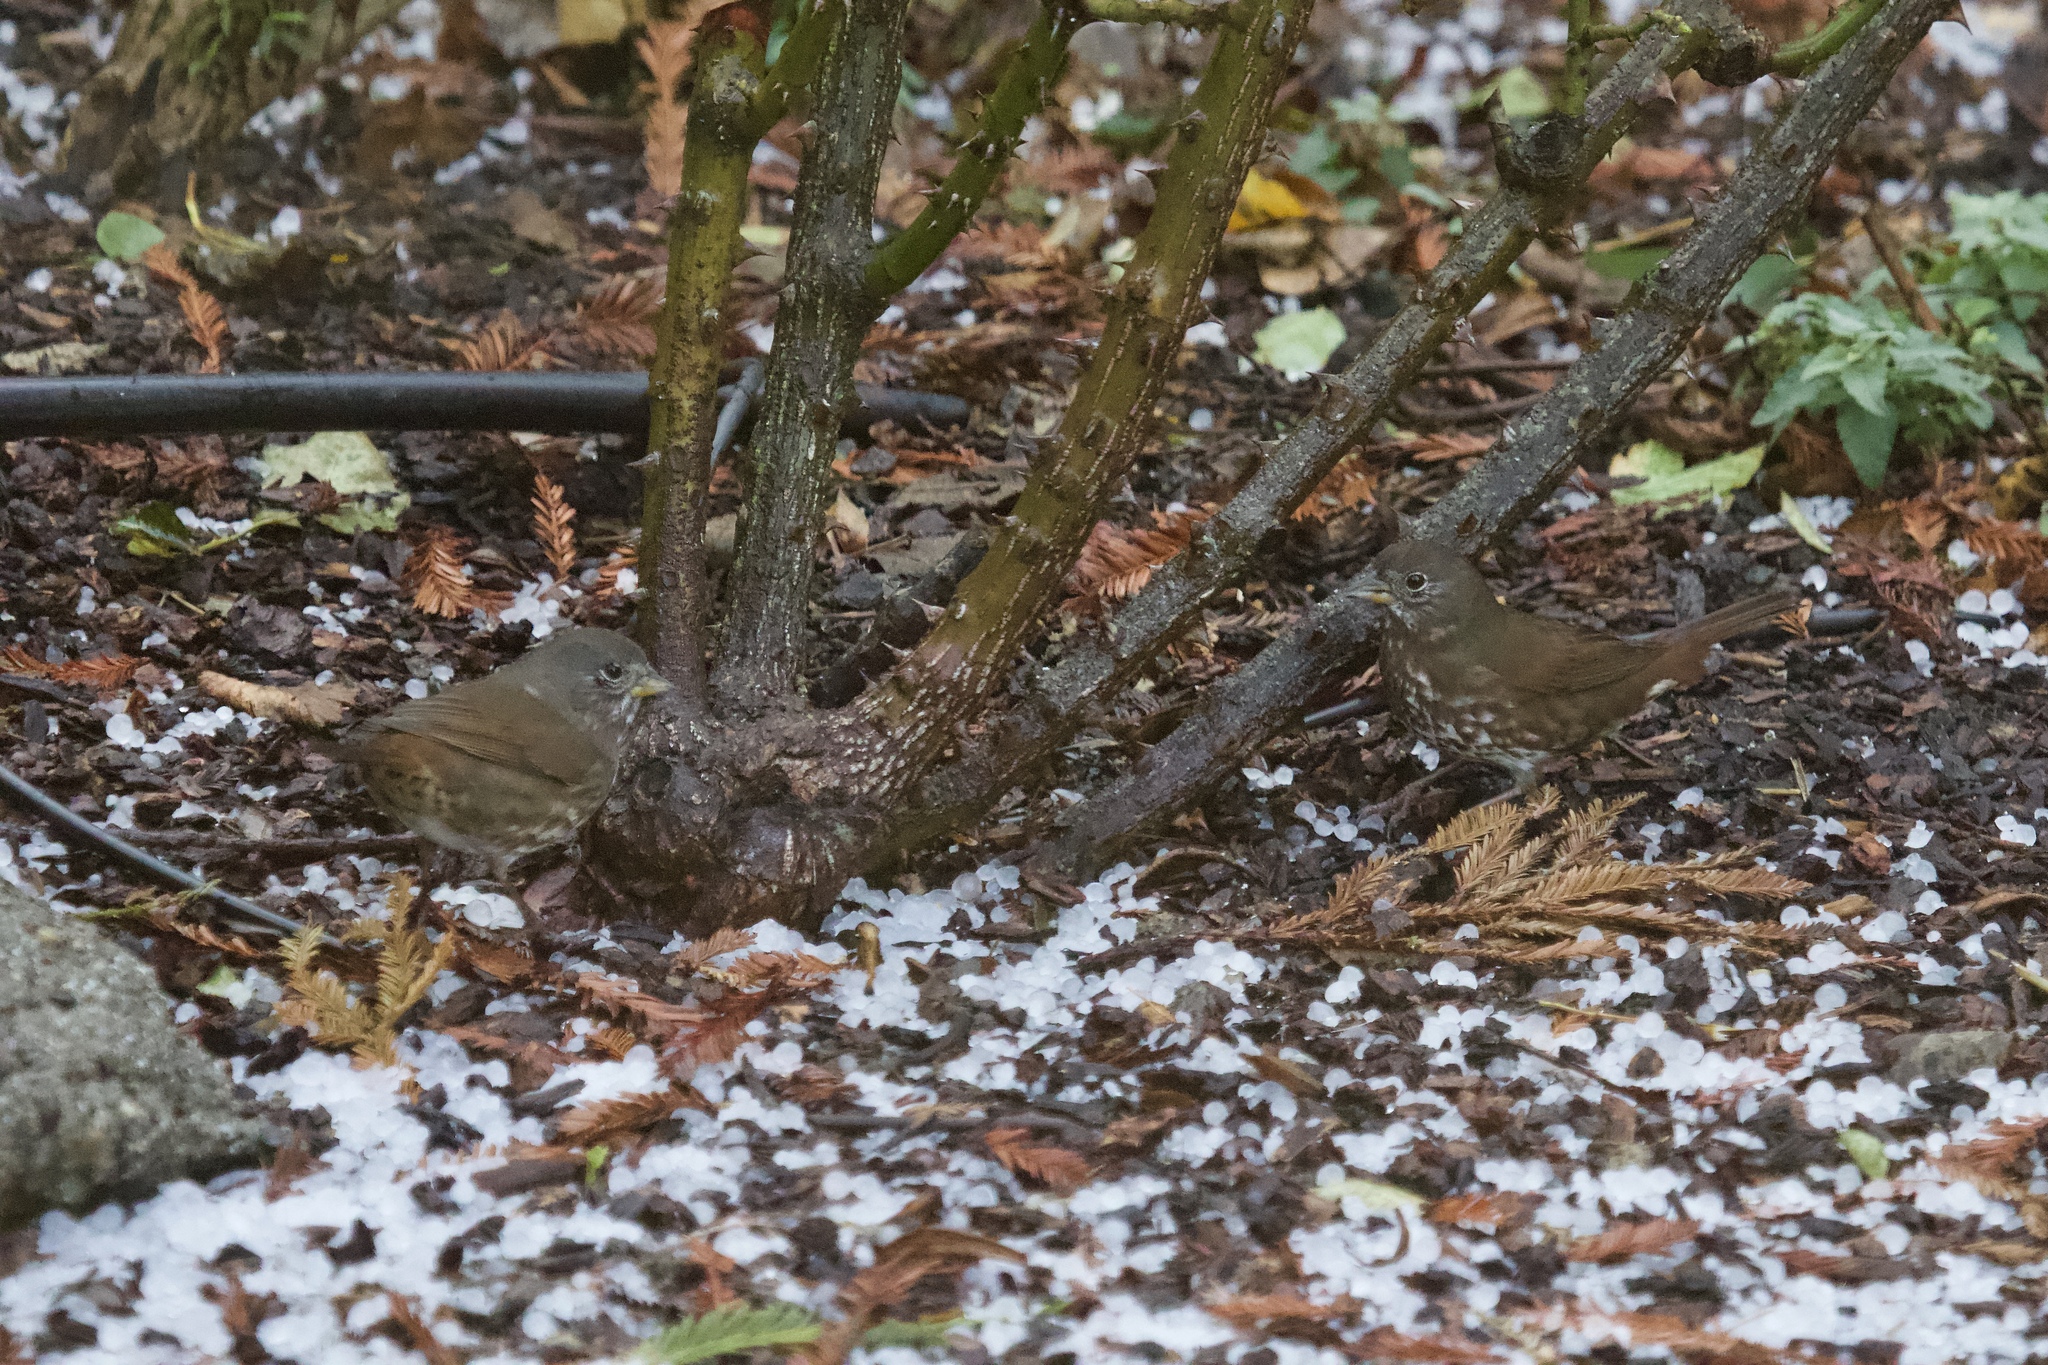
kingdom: Animalia
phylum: Chordata
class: Aves
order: Passeriformes
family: Passerellidae
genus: Passerella
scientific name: Passerella iliaca
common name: Fox sparrow
